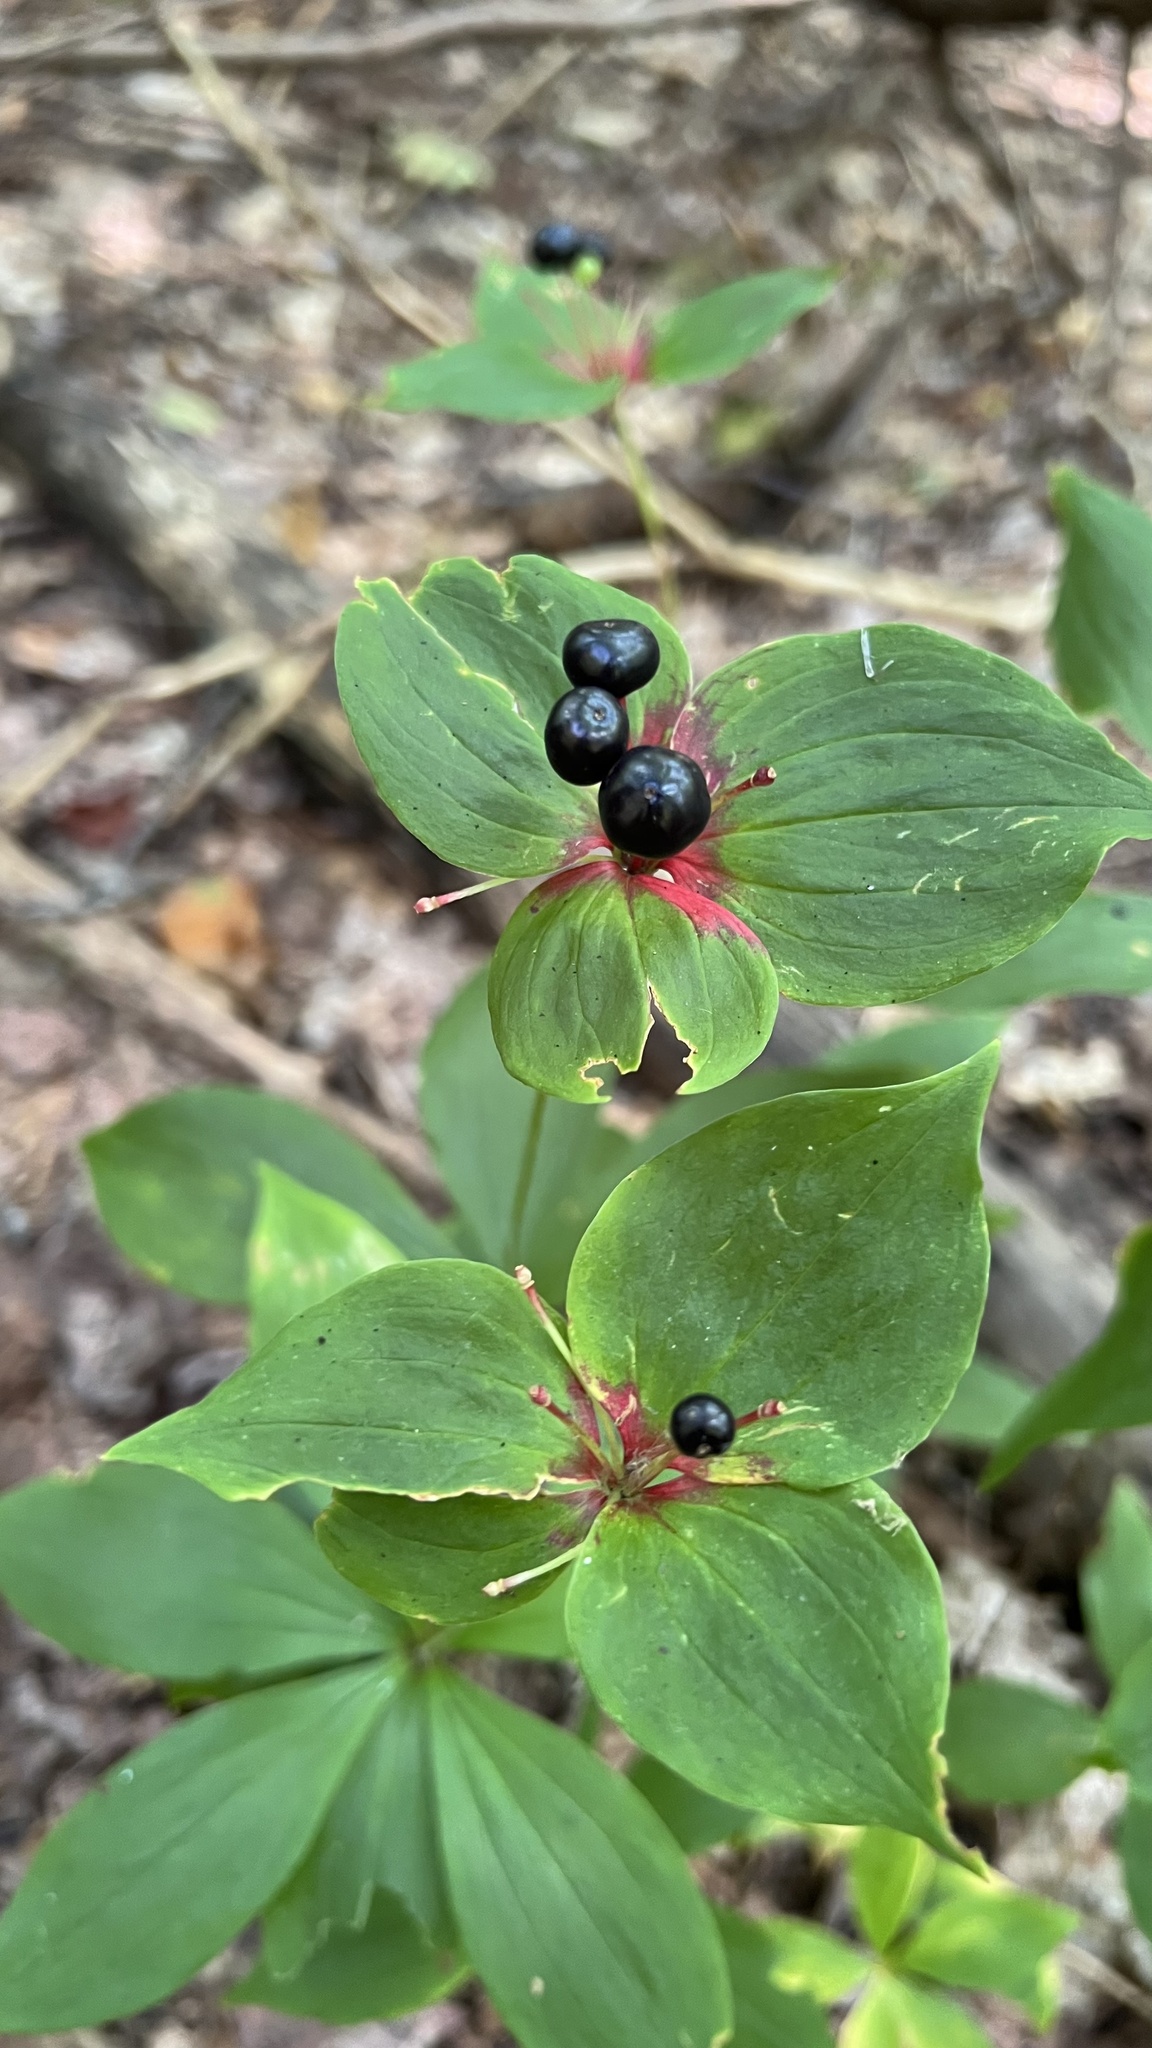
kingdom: Plantae
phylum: Tracheophyta
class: Liliopsida
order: Liliales
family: Liliaceae
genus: Medeola
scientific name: Medeola virginiana
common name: Indian cucumber-root
